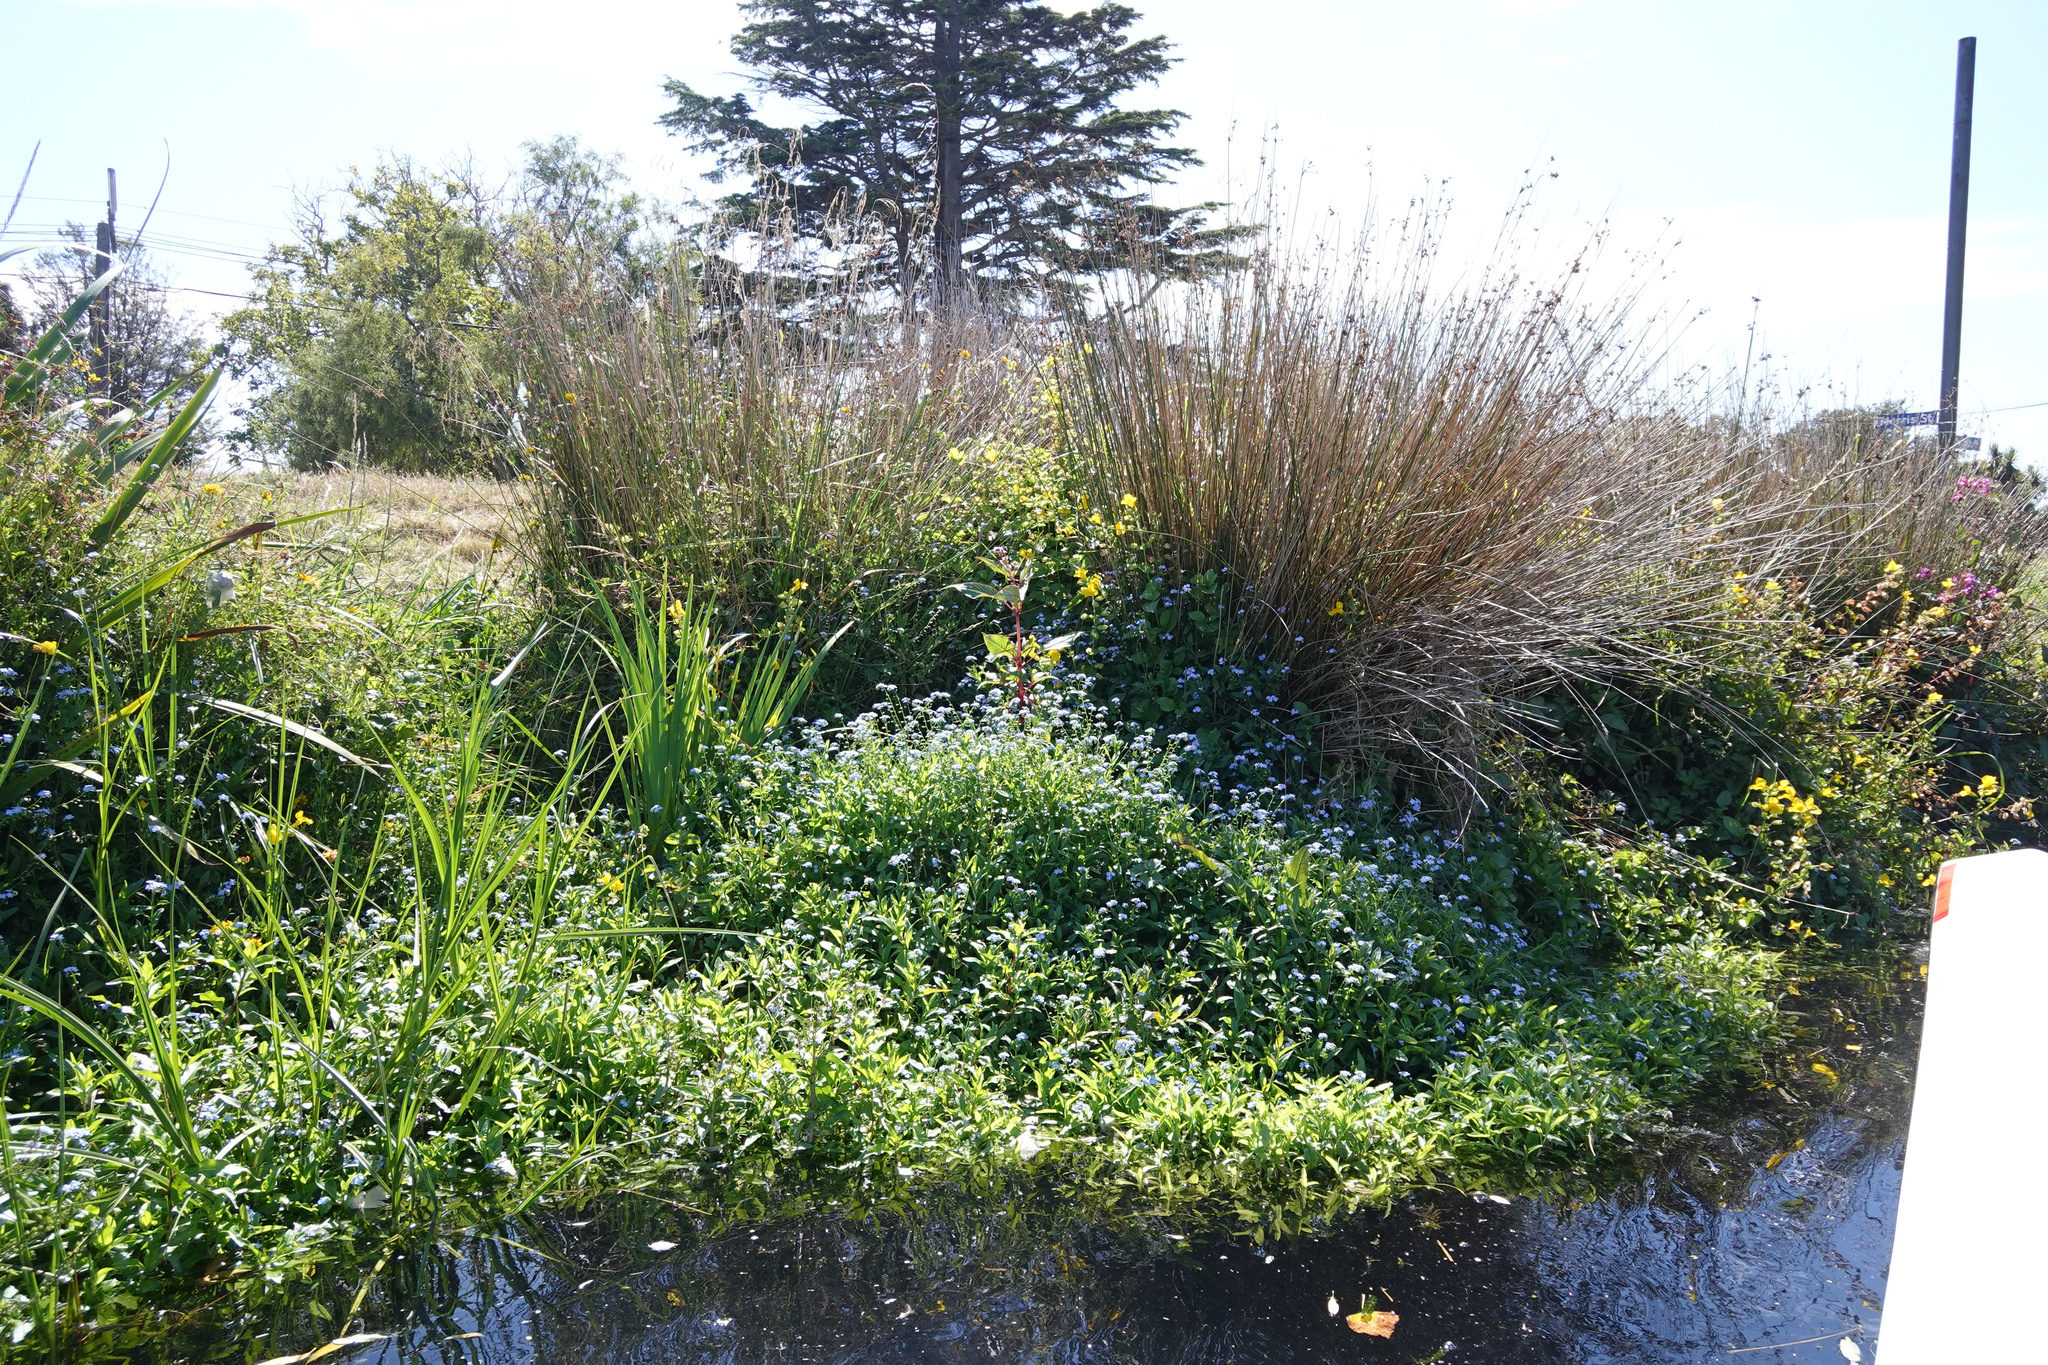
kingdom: Plantae
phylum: Tracheophyta
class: Magnoliopsida
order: Ericales
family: Balsaminaceae
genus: Impatiens
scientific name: Impatiens glandulifera
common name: Himalayan balsam
